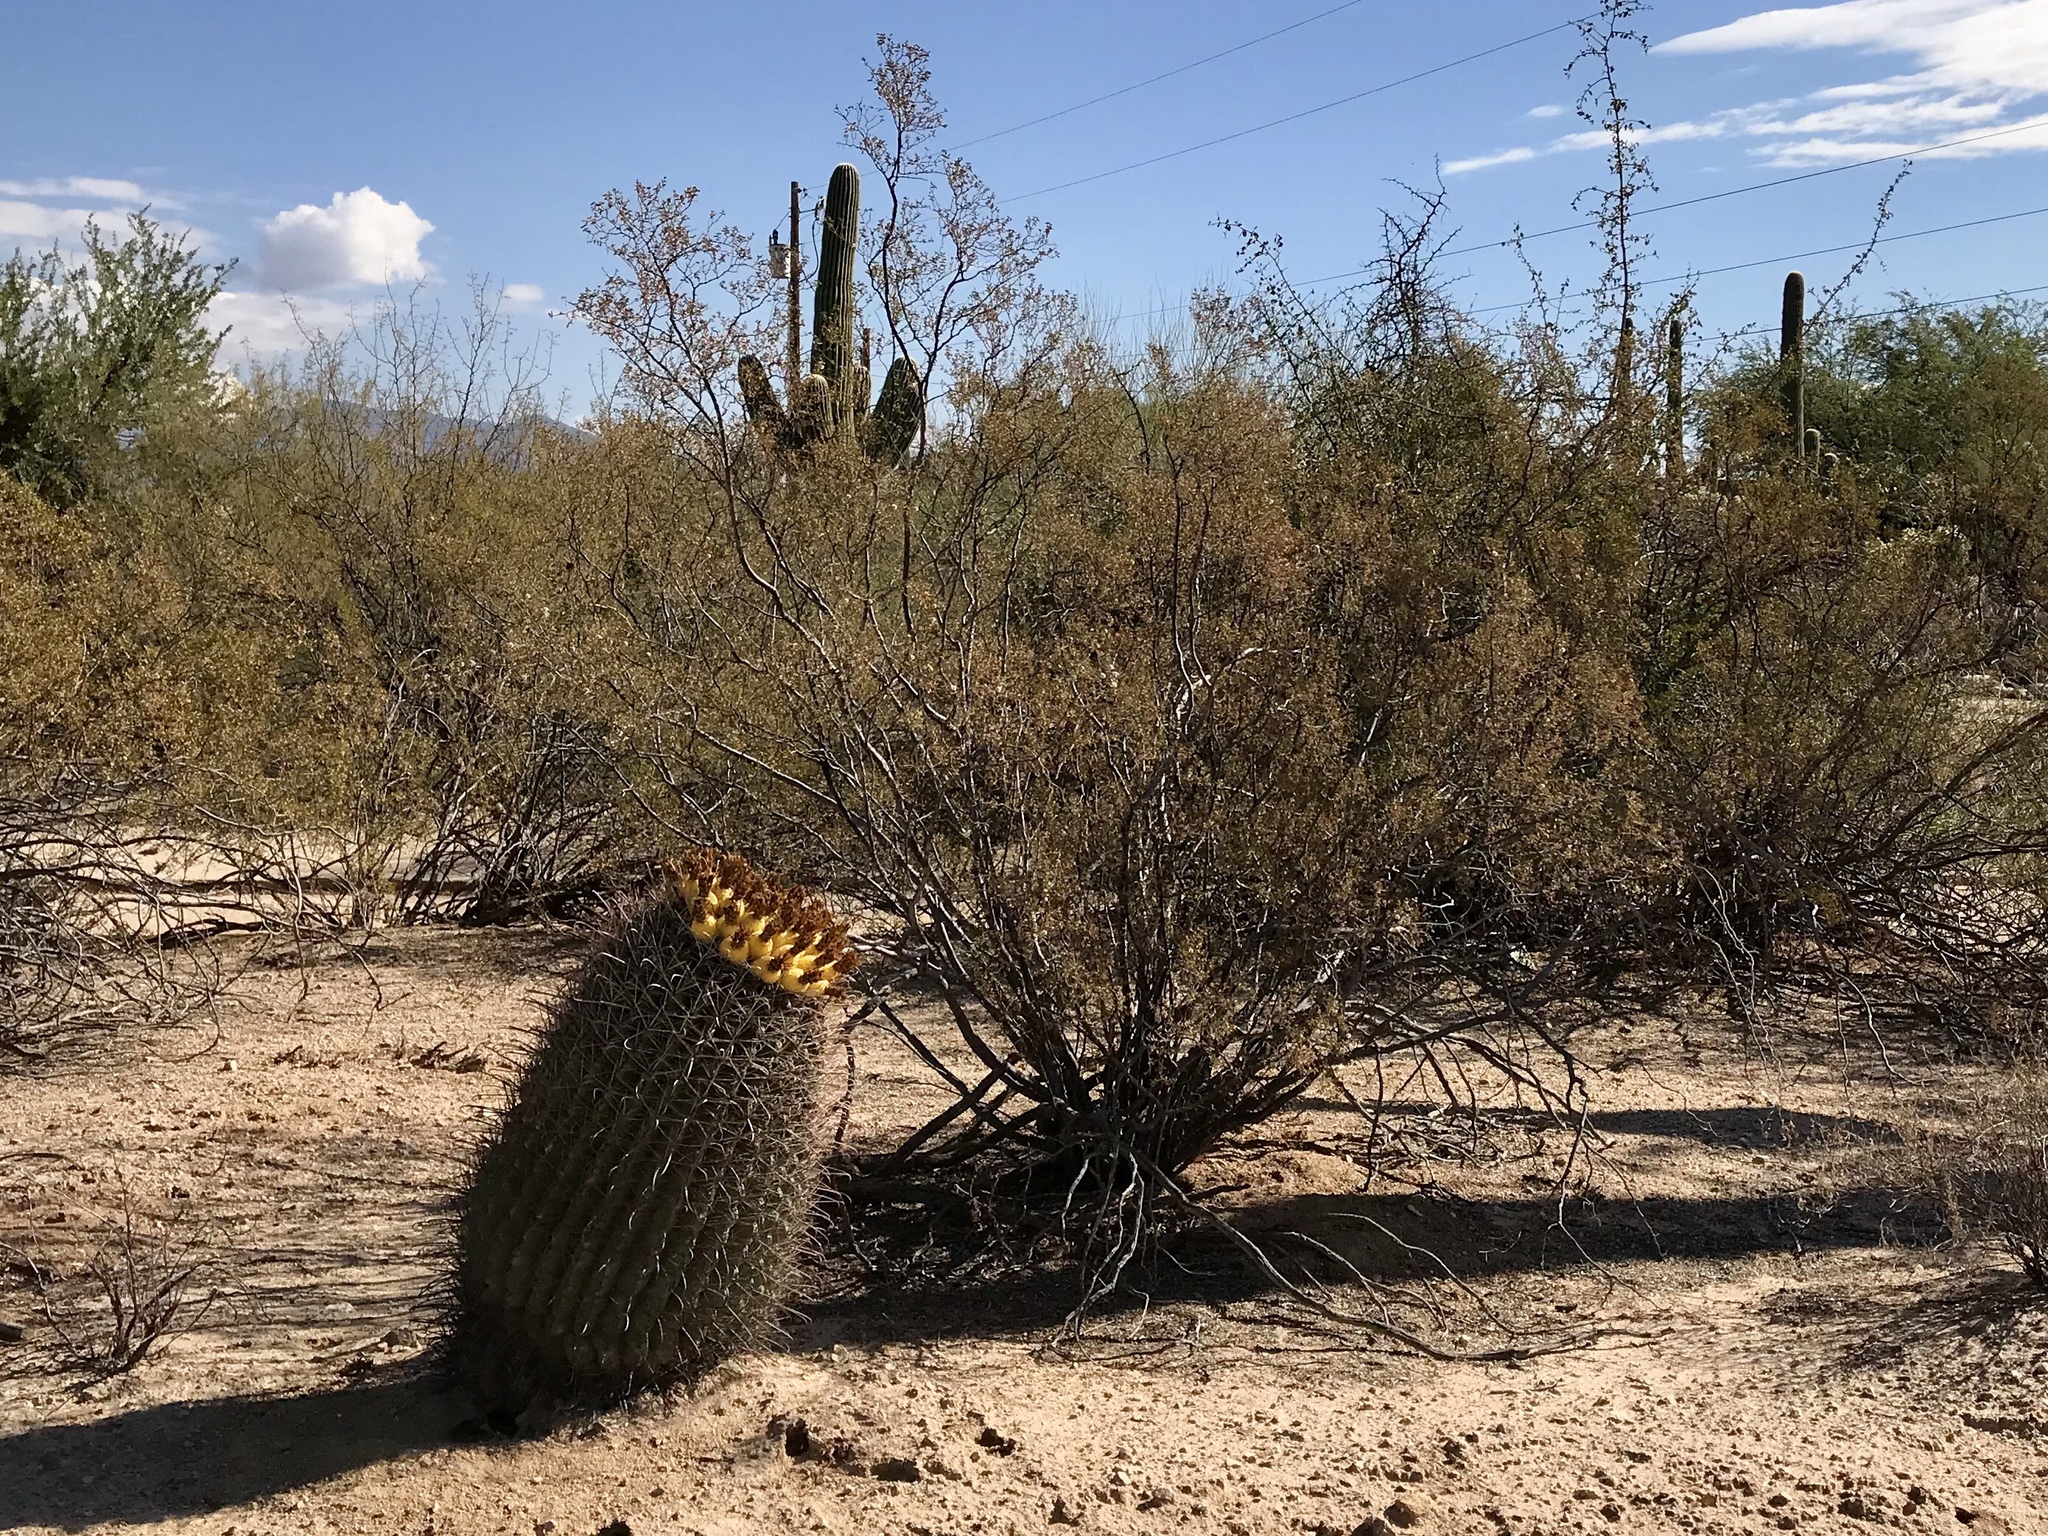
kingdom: Plantae
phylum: Tracheophyta
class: Magnoliopsida
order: Caryophyllales
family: Cactaceae
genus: Ferocactus
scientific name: Ferocactus wislizeni
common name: Candy barrel cactus
